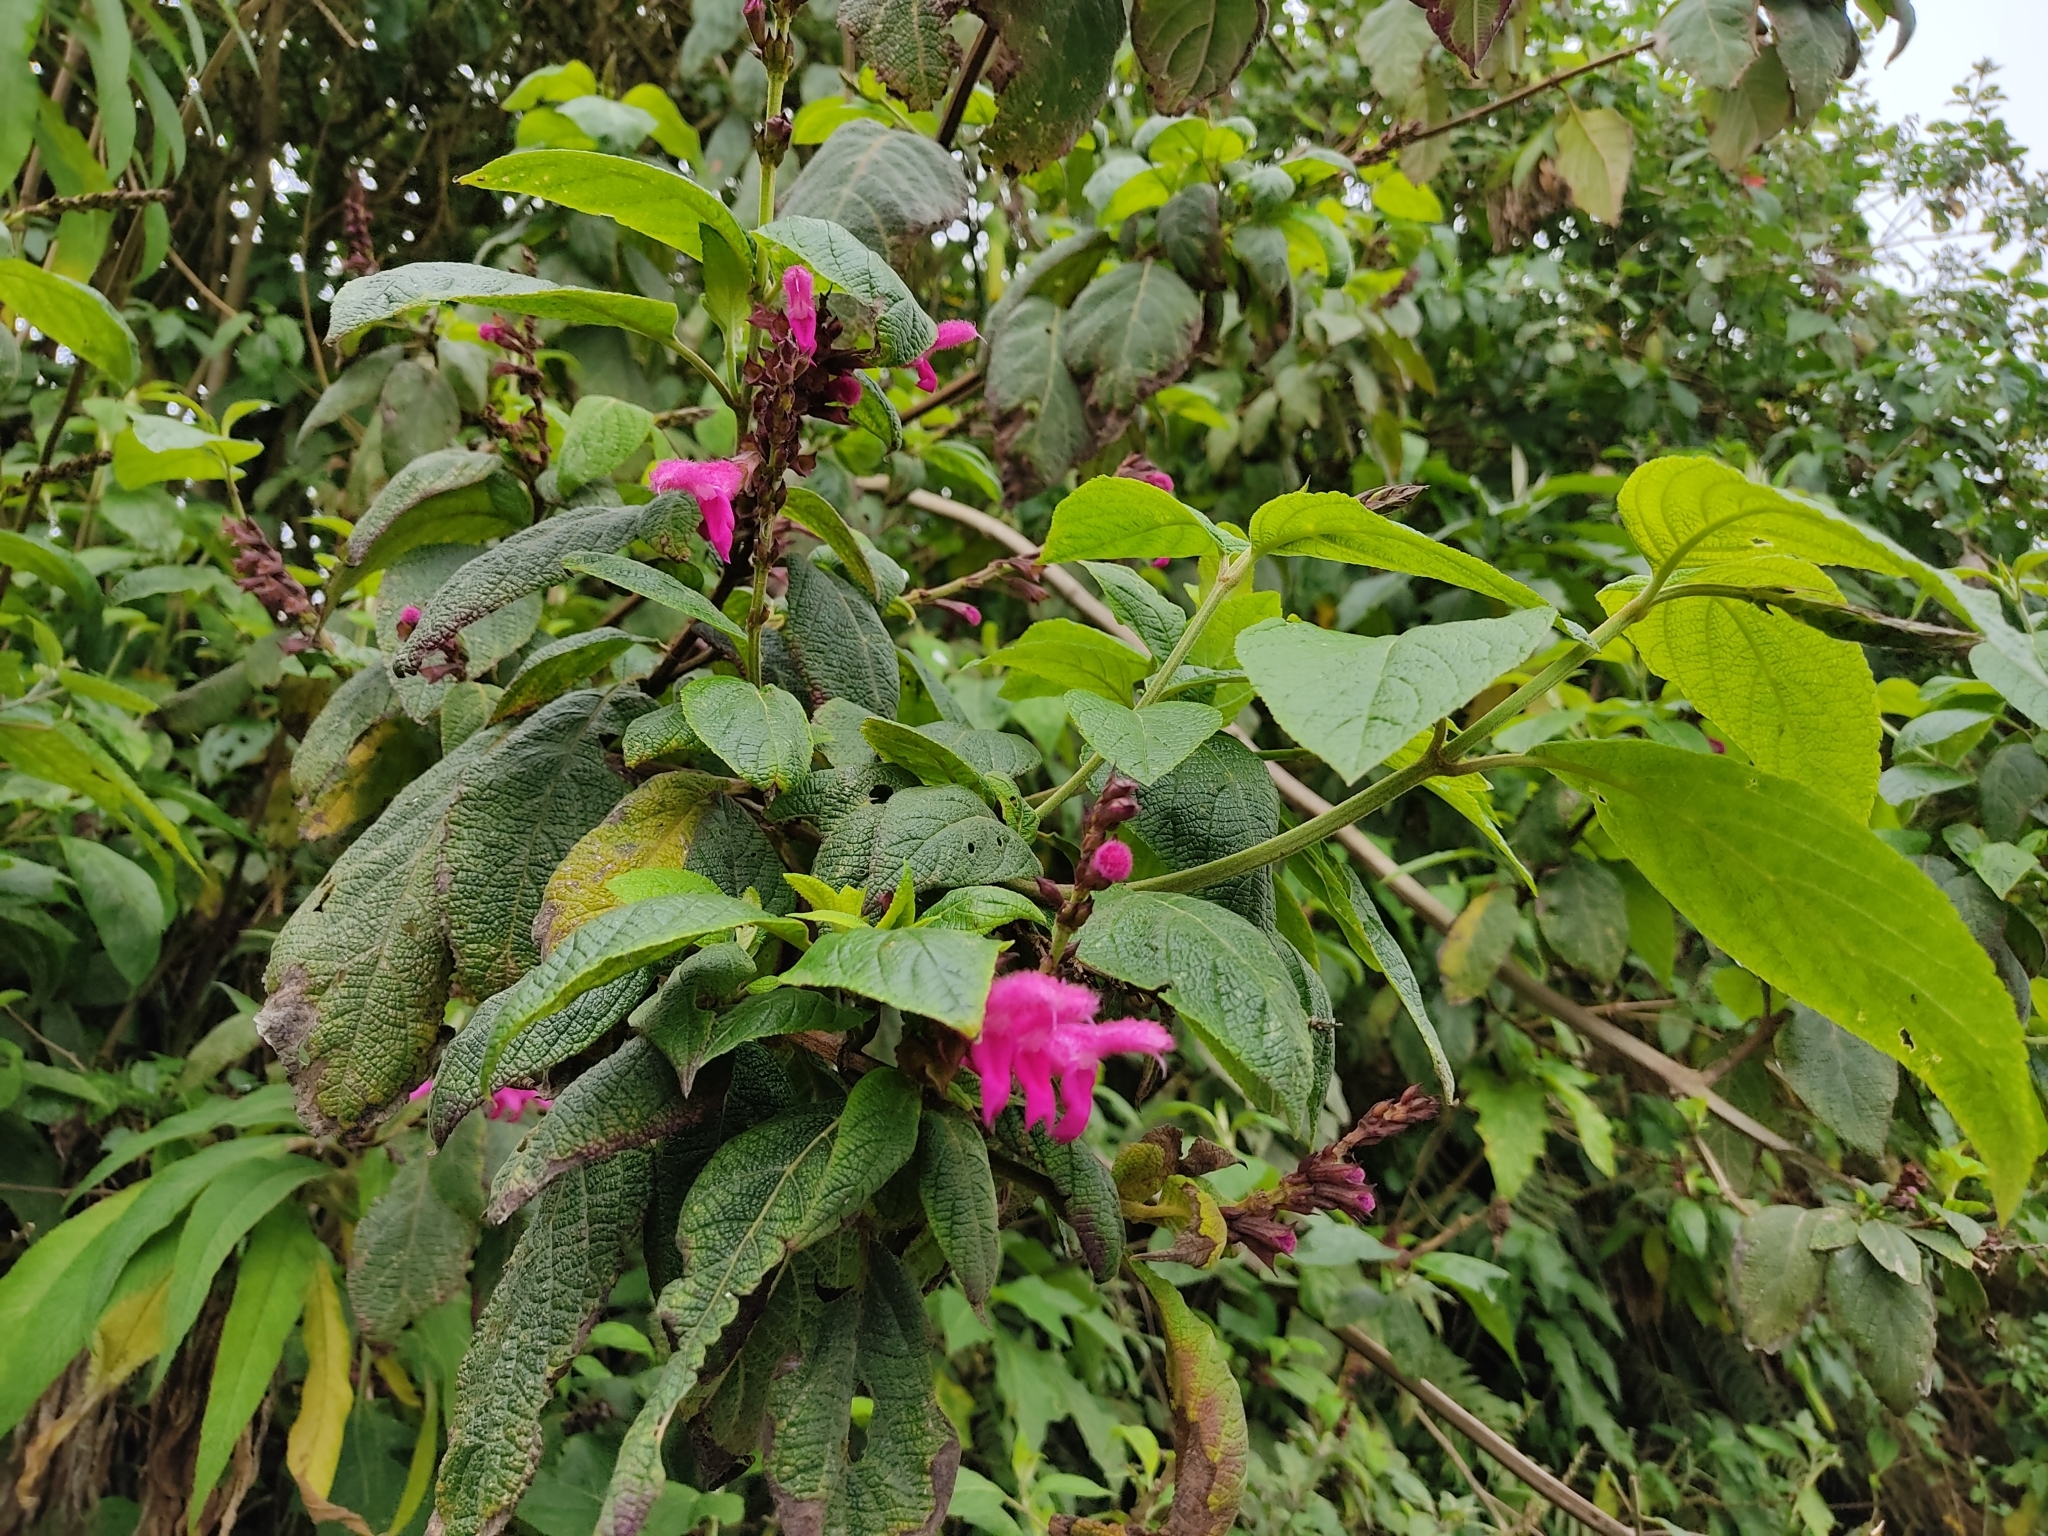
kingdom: Plantae
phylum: Tracheophyta
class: Magnoliopsida
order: Lamiales
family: Lamiaceae
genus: Salvia
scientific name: Salvia tortuosa
